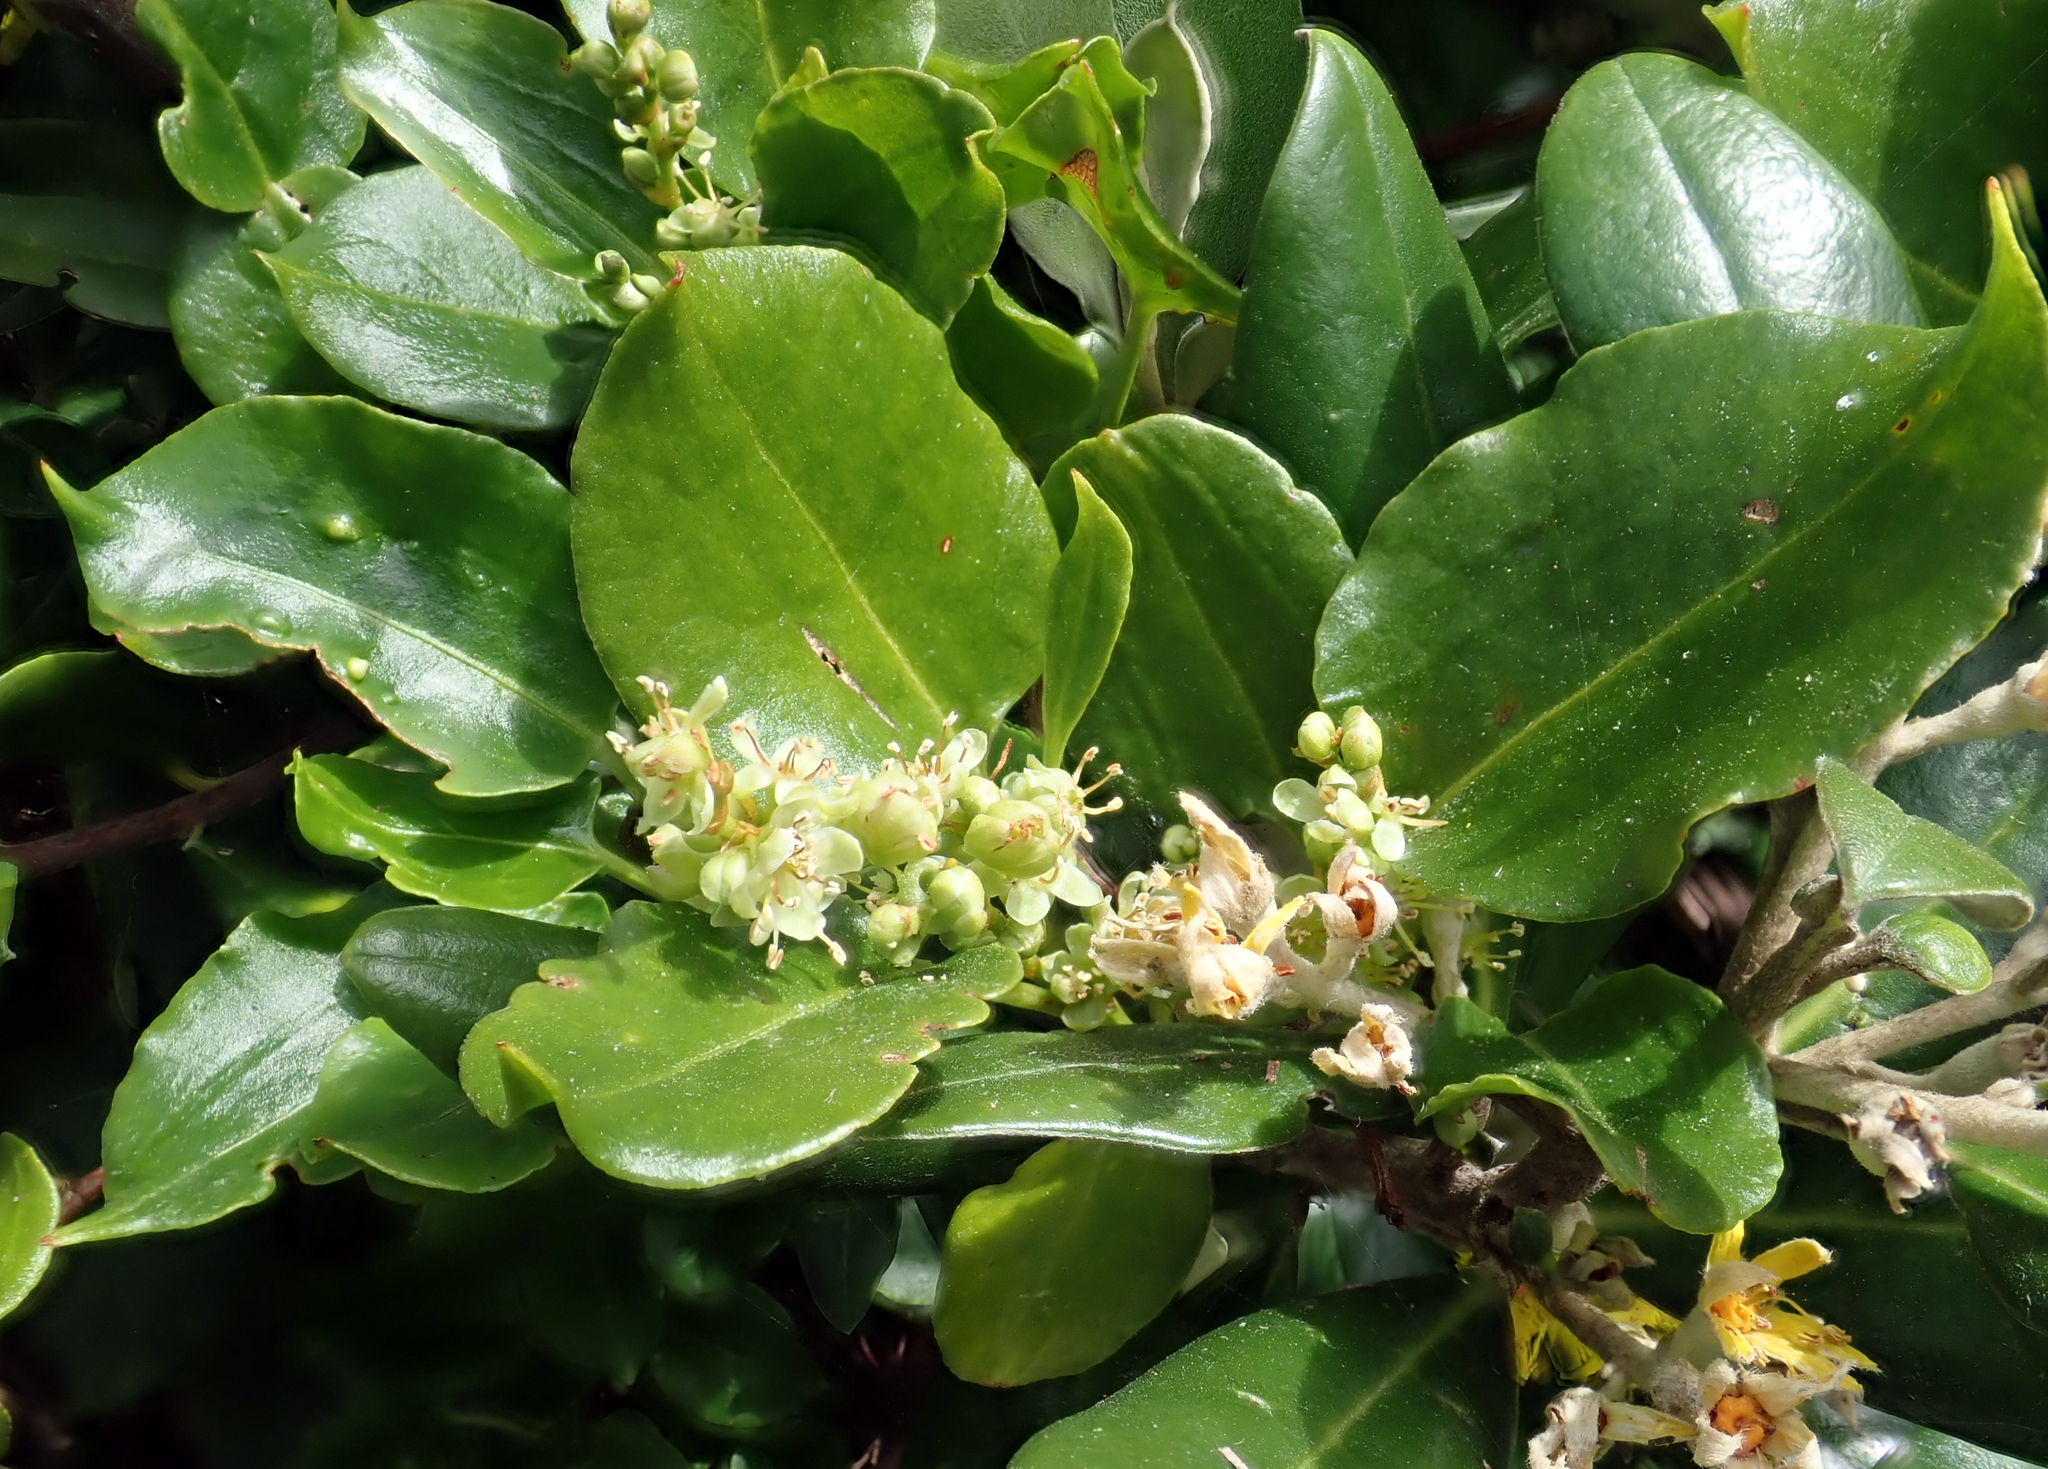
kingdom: Plantae
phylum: Tracheophyta
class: Magnoliopsida
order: Caryophyllales
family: Polygonaceae
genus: Muehlenbeckia
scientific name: Muehlenbeckia australis
